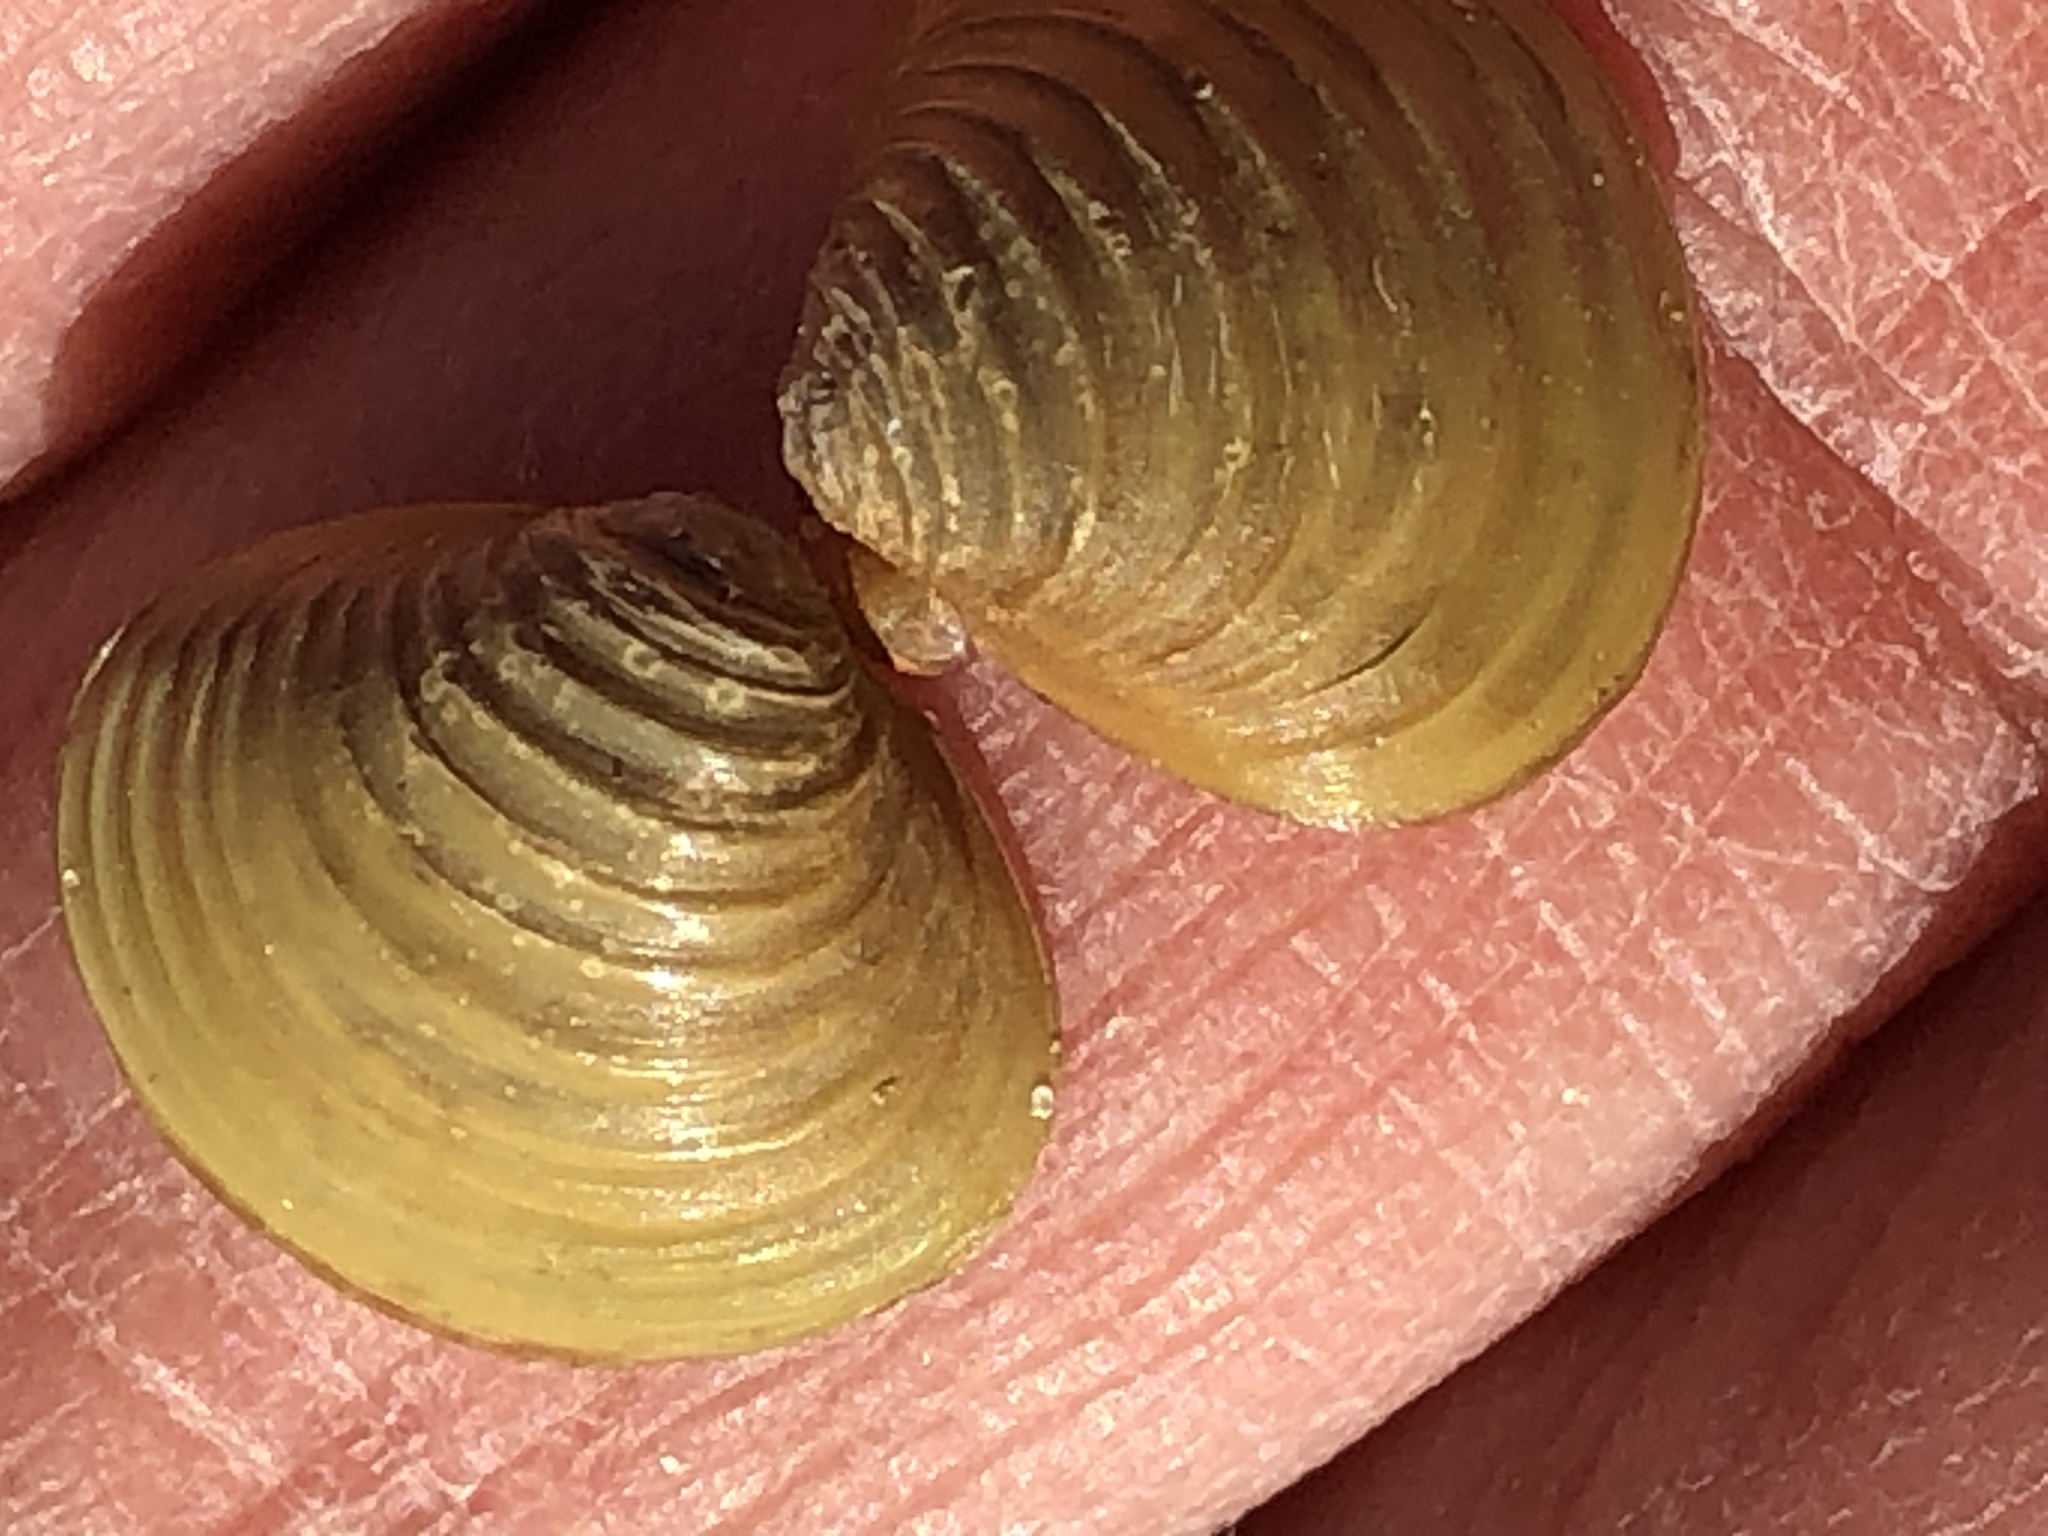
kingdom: Animalia
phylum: Mollusca
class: Bivalvia
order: Venerida
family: Cyrenidae
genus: Corbicula
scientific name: Corbicula fluminea
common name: Asian clam
